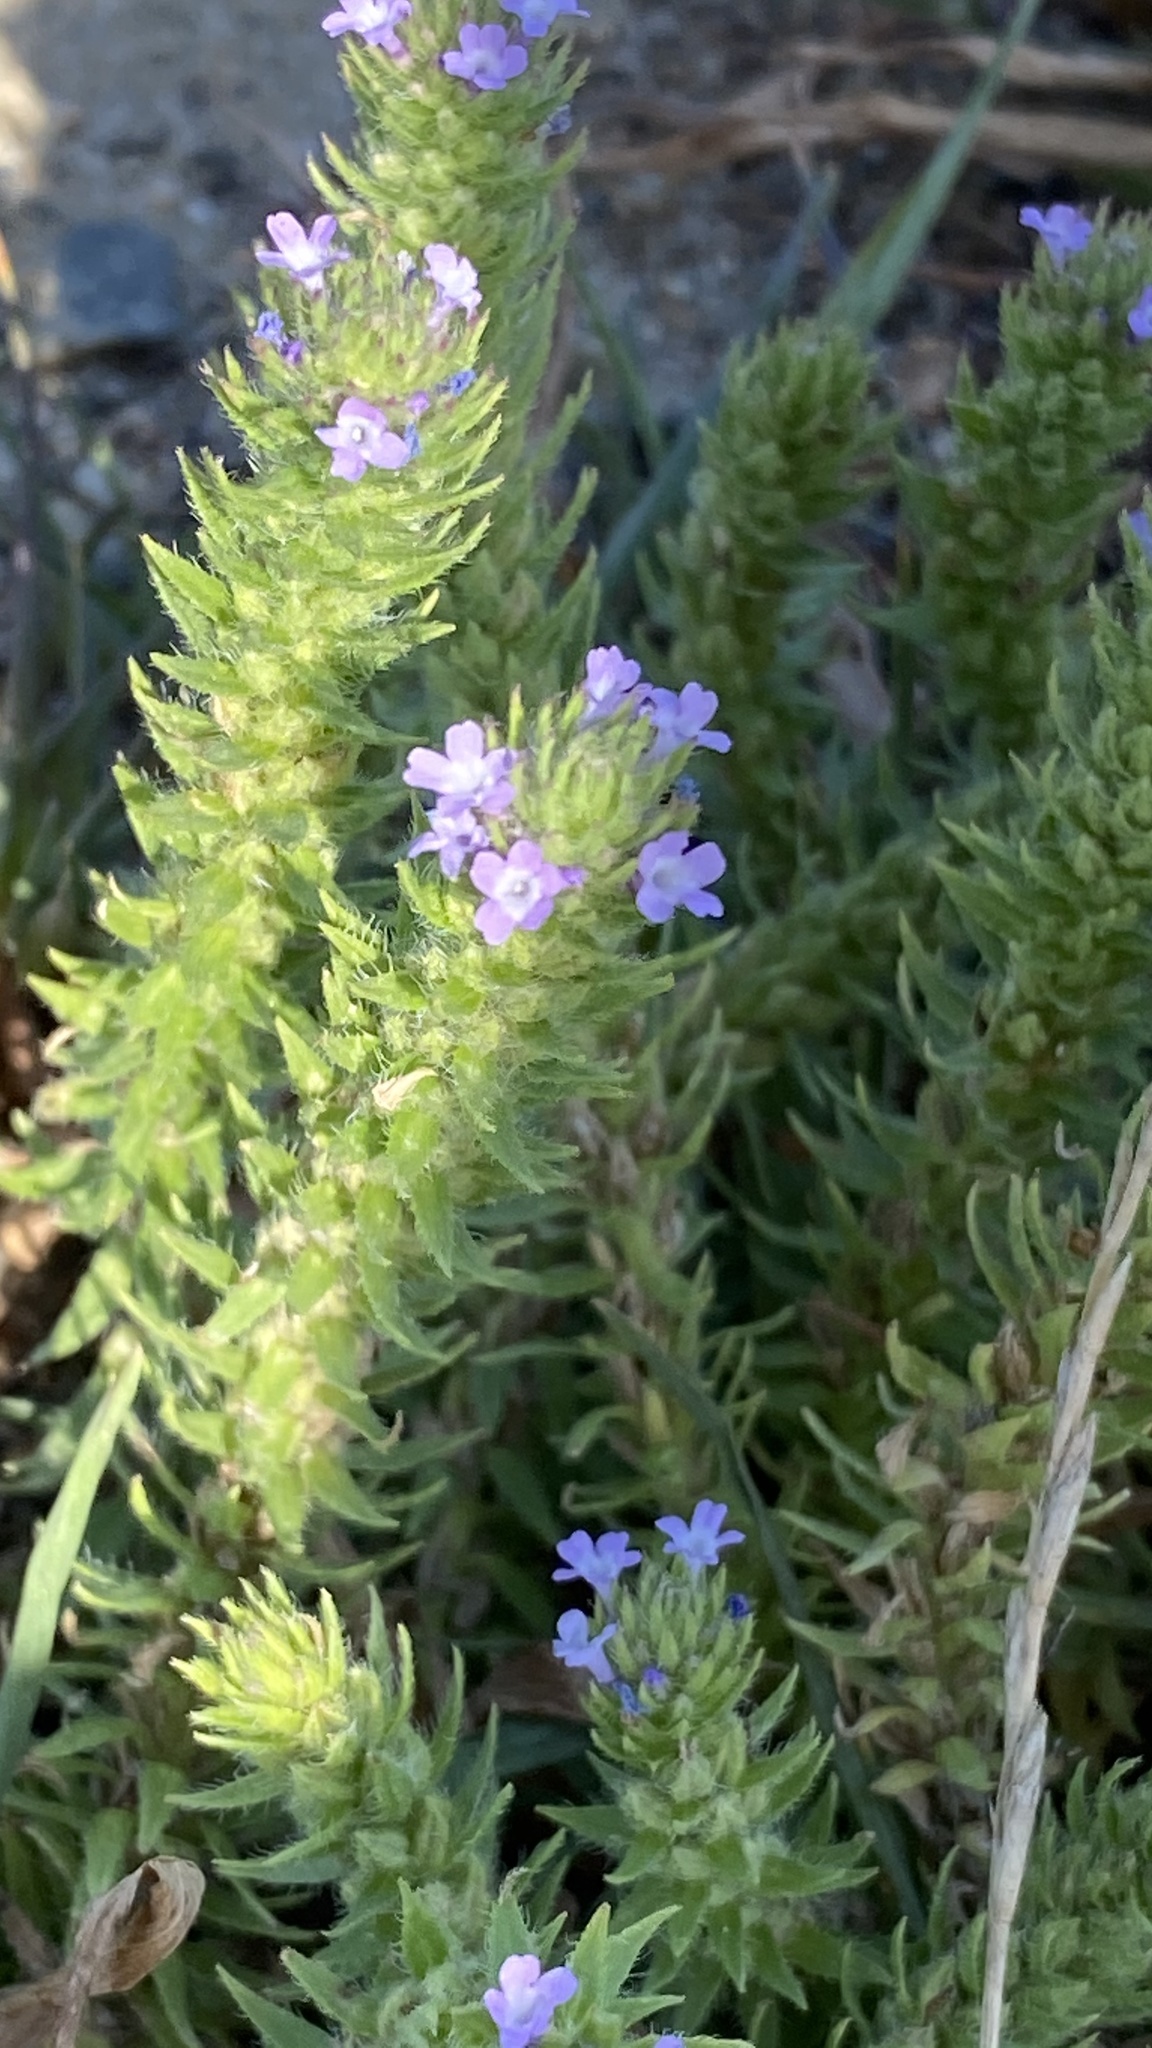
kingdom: Plantae
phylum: Tracheophyta
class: Magnoliopsida
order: Lamiales
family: Verbenaceae
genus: Verbena
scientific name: Verbena bracteata
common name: Bracted vervain
